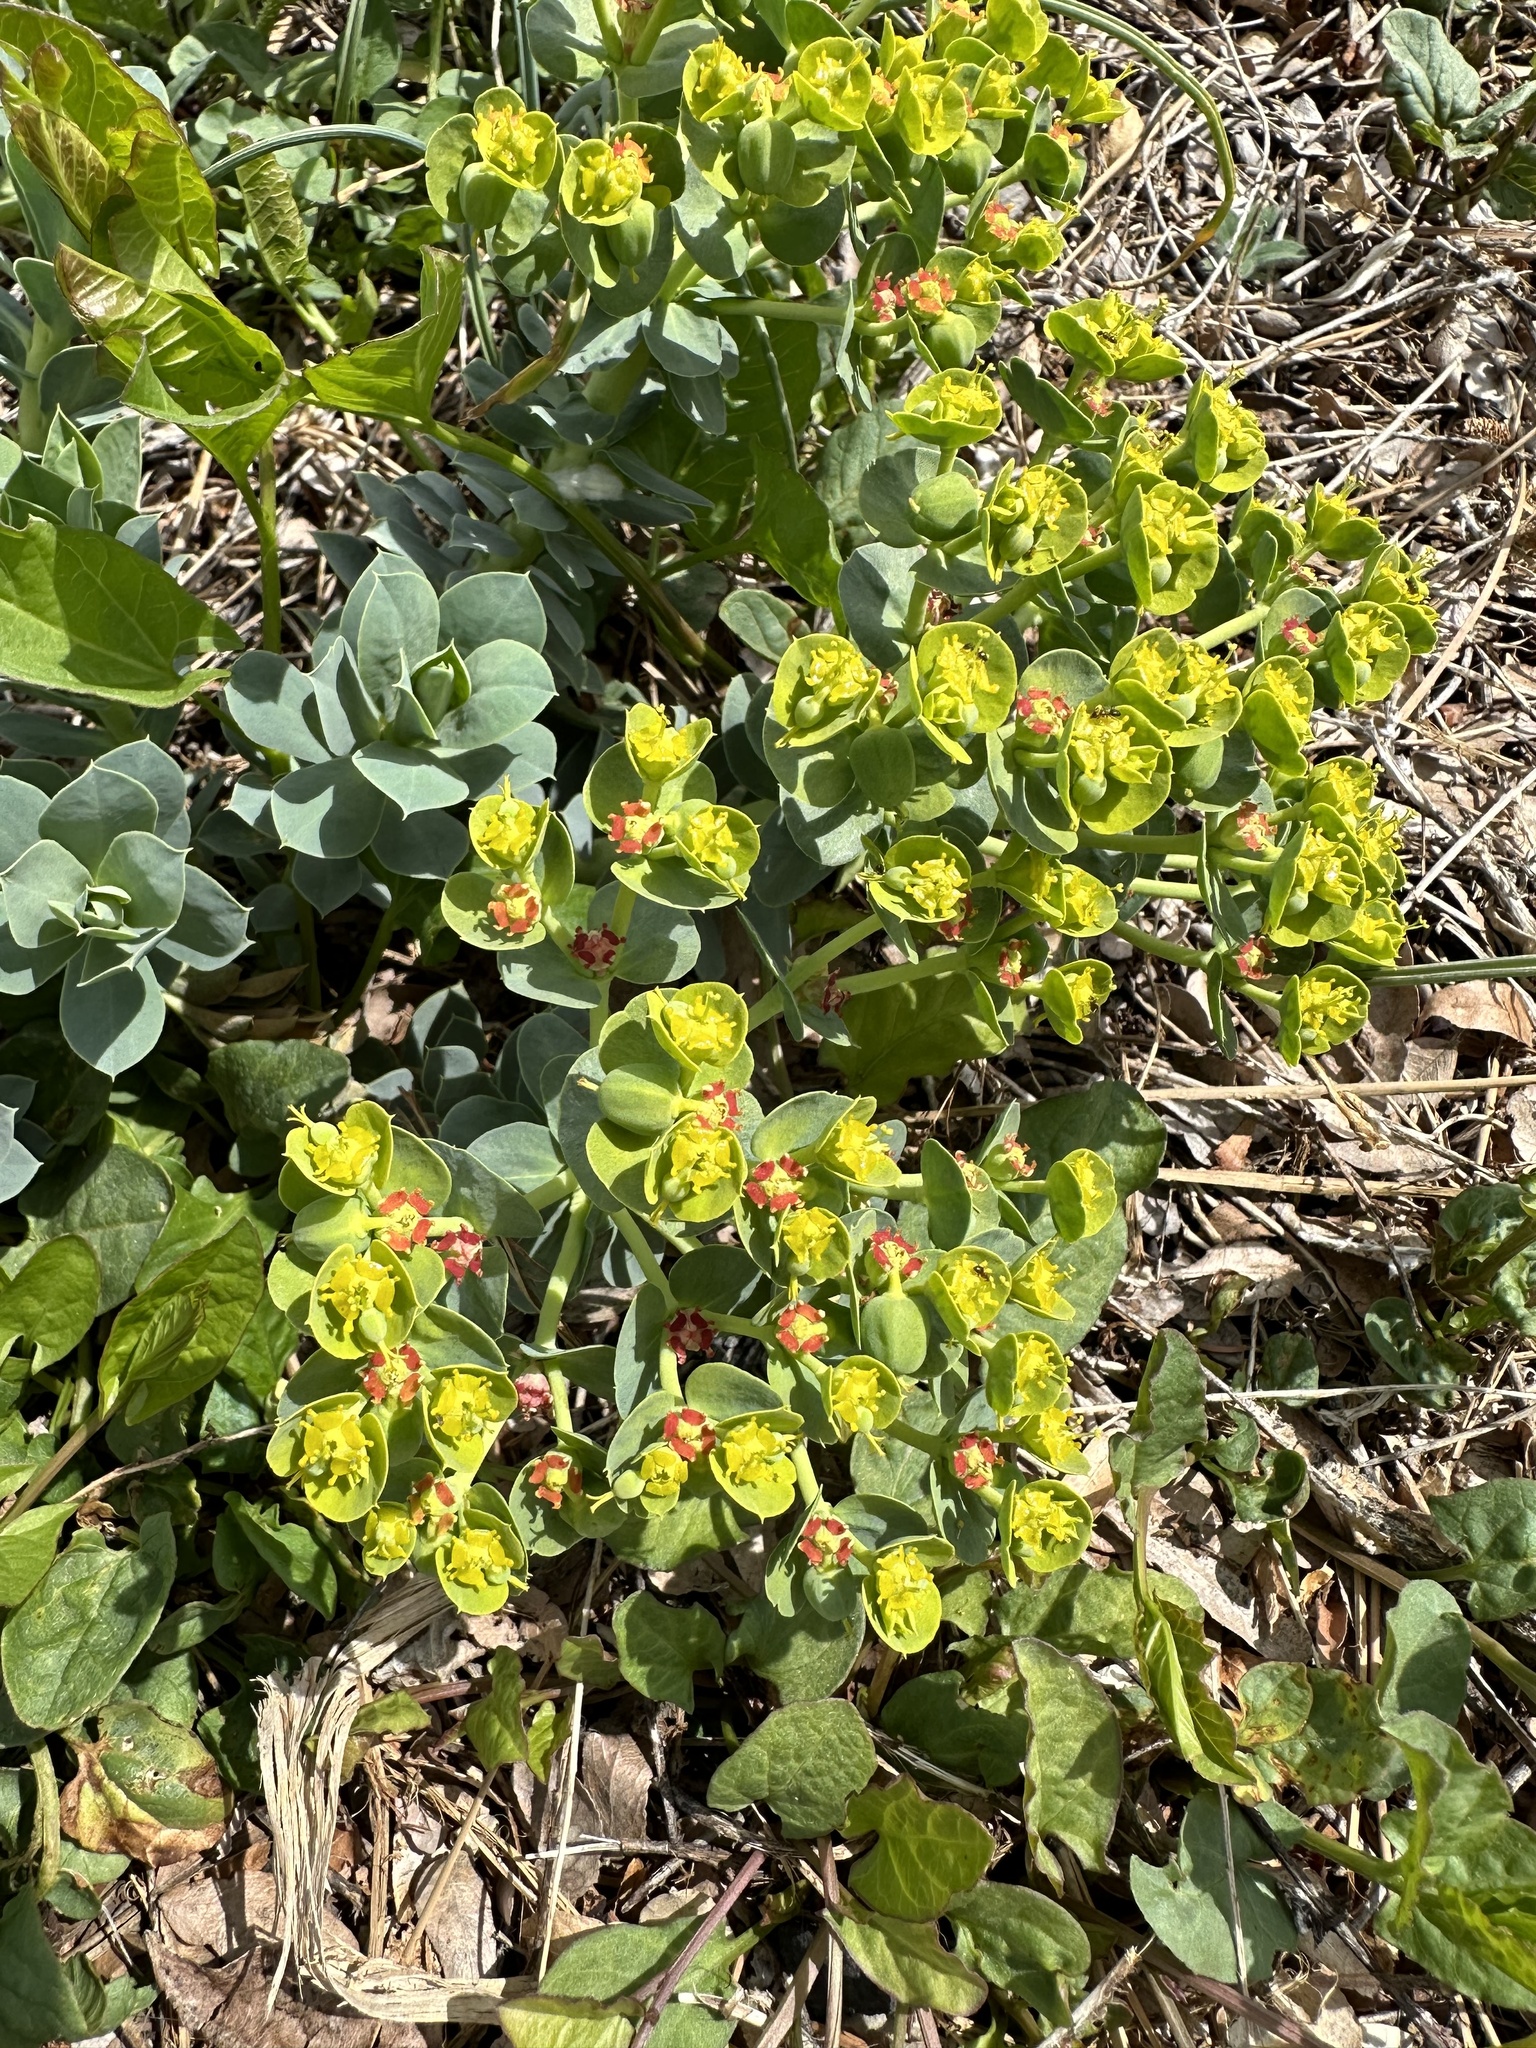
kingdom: Plantae
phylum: Tracheophyta
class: Magnoliopsida
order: Malpighiales
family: Euphorbiaceae
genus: Euphorbia
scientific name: Euphorbia myrsinites
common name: Myrtle spurge
